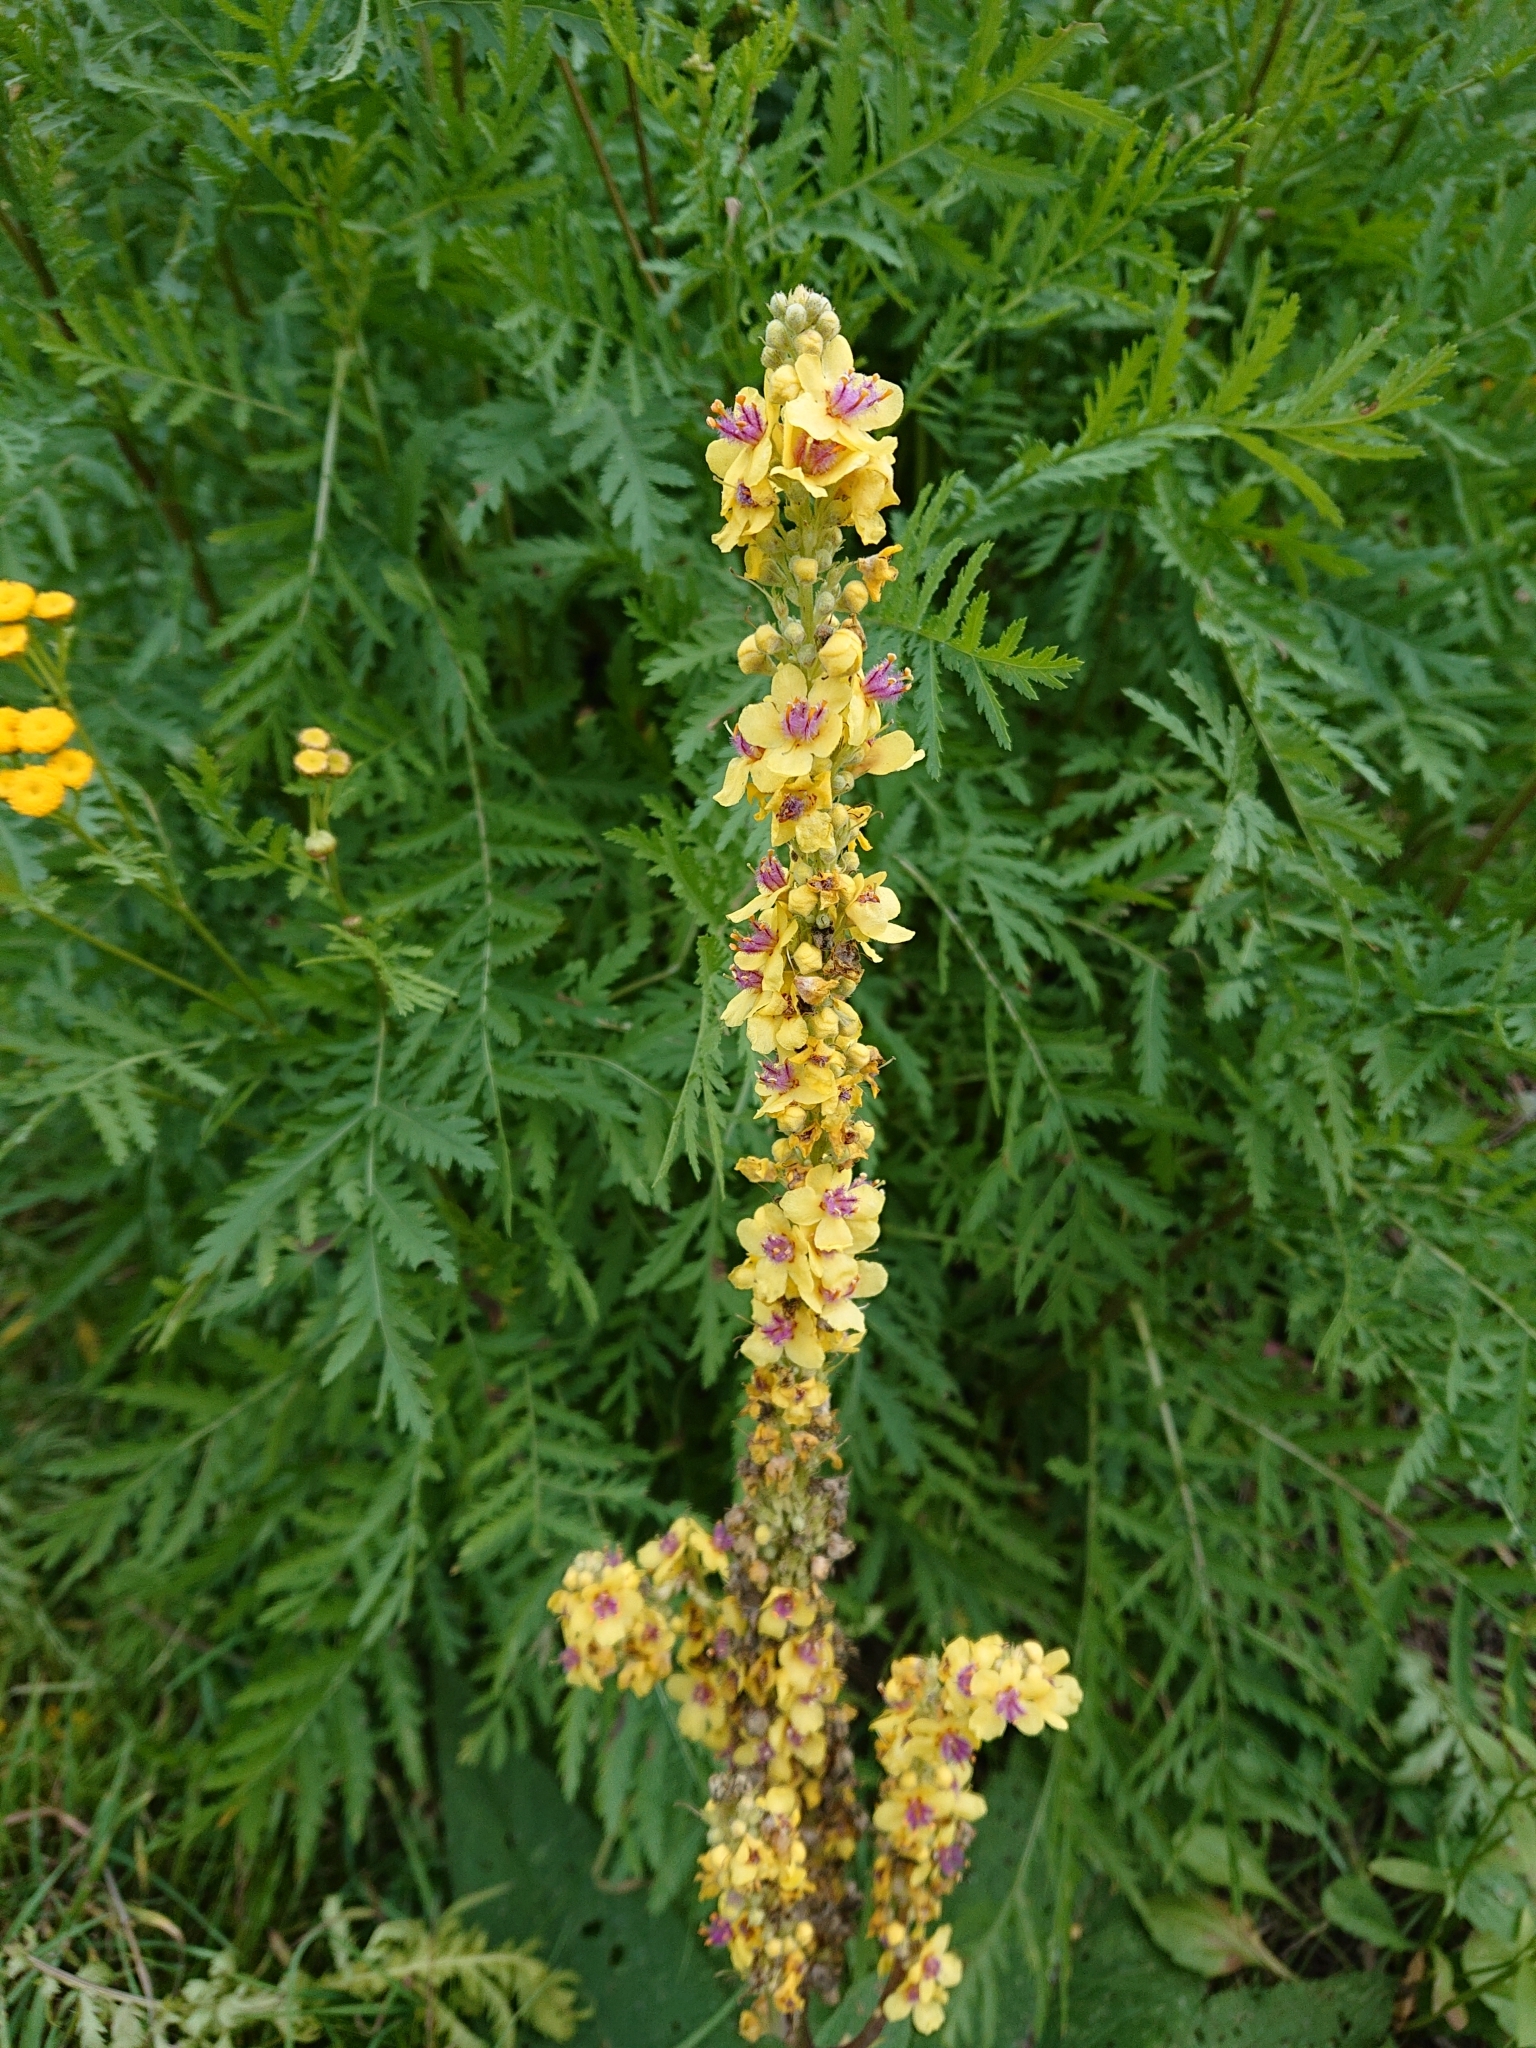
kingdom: Plantae
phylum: Tracheophyta
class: Magnoliopsida
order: Lamiales
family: Scrophulariaceae
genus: Verbascum
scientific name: Verbascum nigrum
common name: Dark mullein
